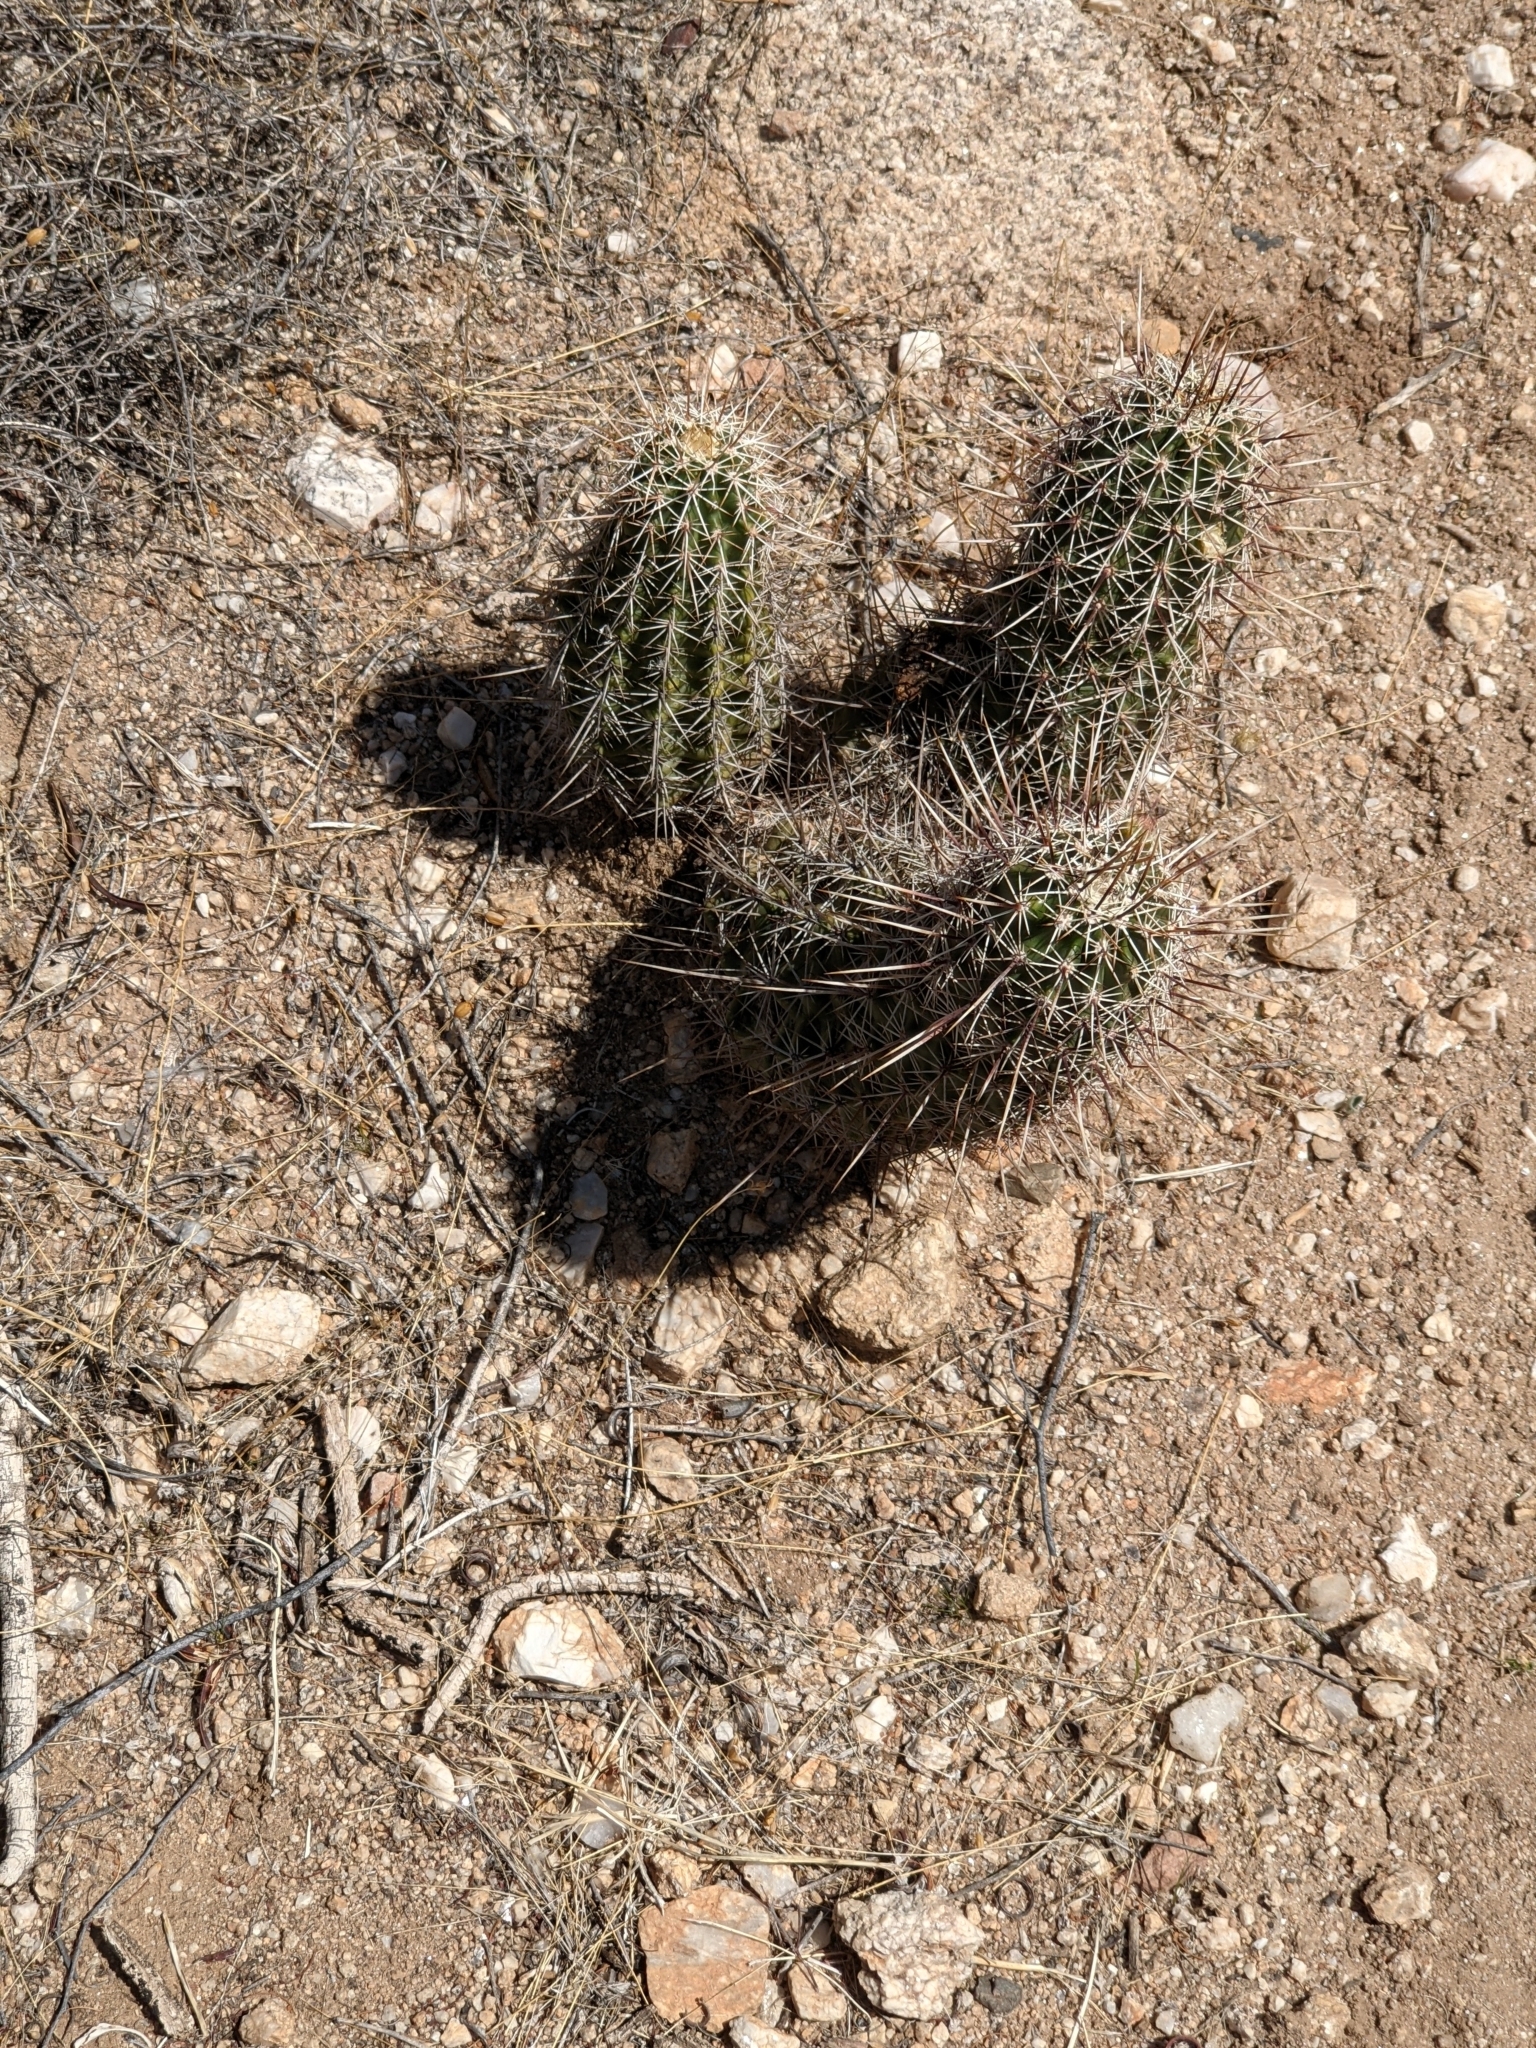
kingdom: Plantae
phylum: Tracheophyta
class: Magnoliopsida
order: Caryophyllales
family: Cactaceae
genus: Echinocereus
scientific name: Echinocereus fasciculatus
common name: Bundle hedgehog
